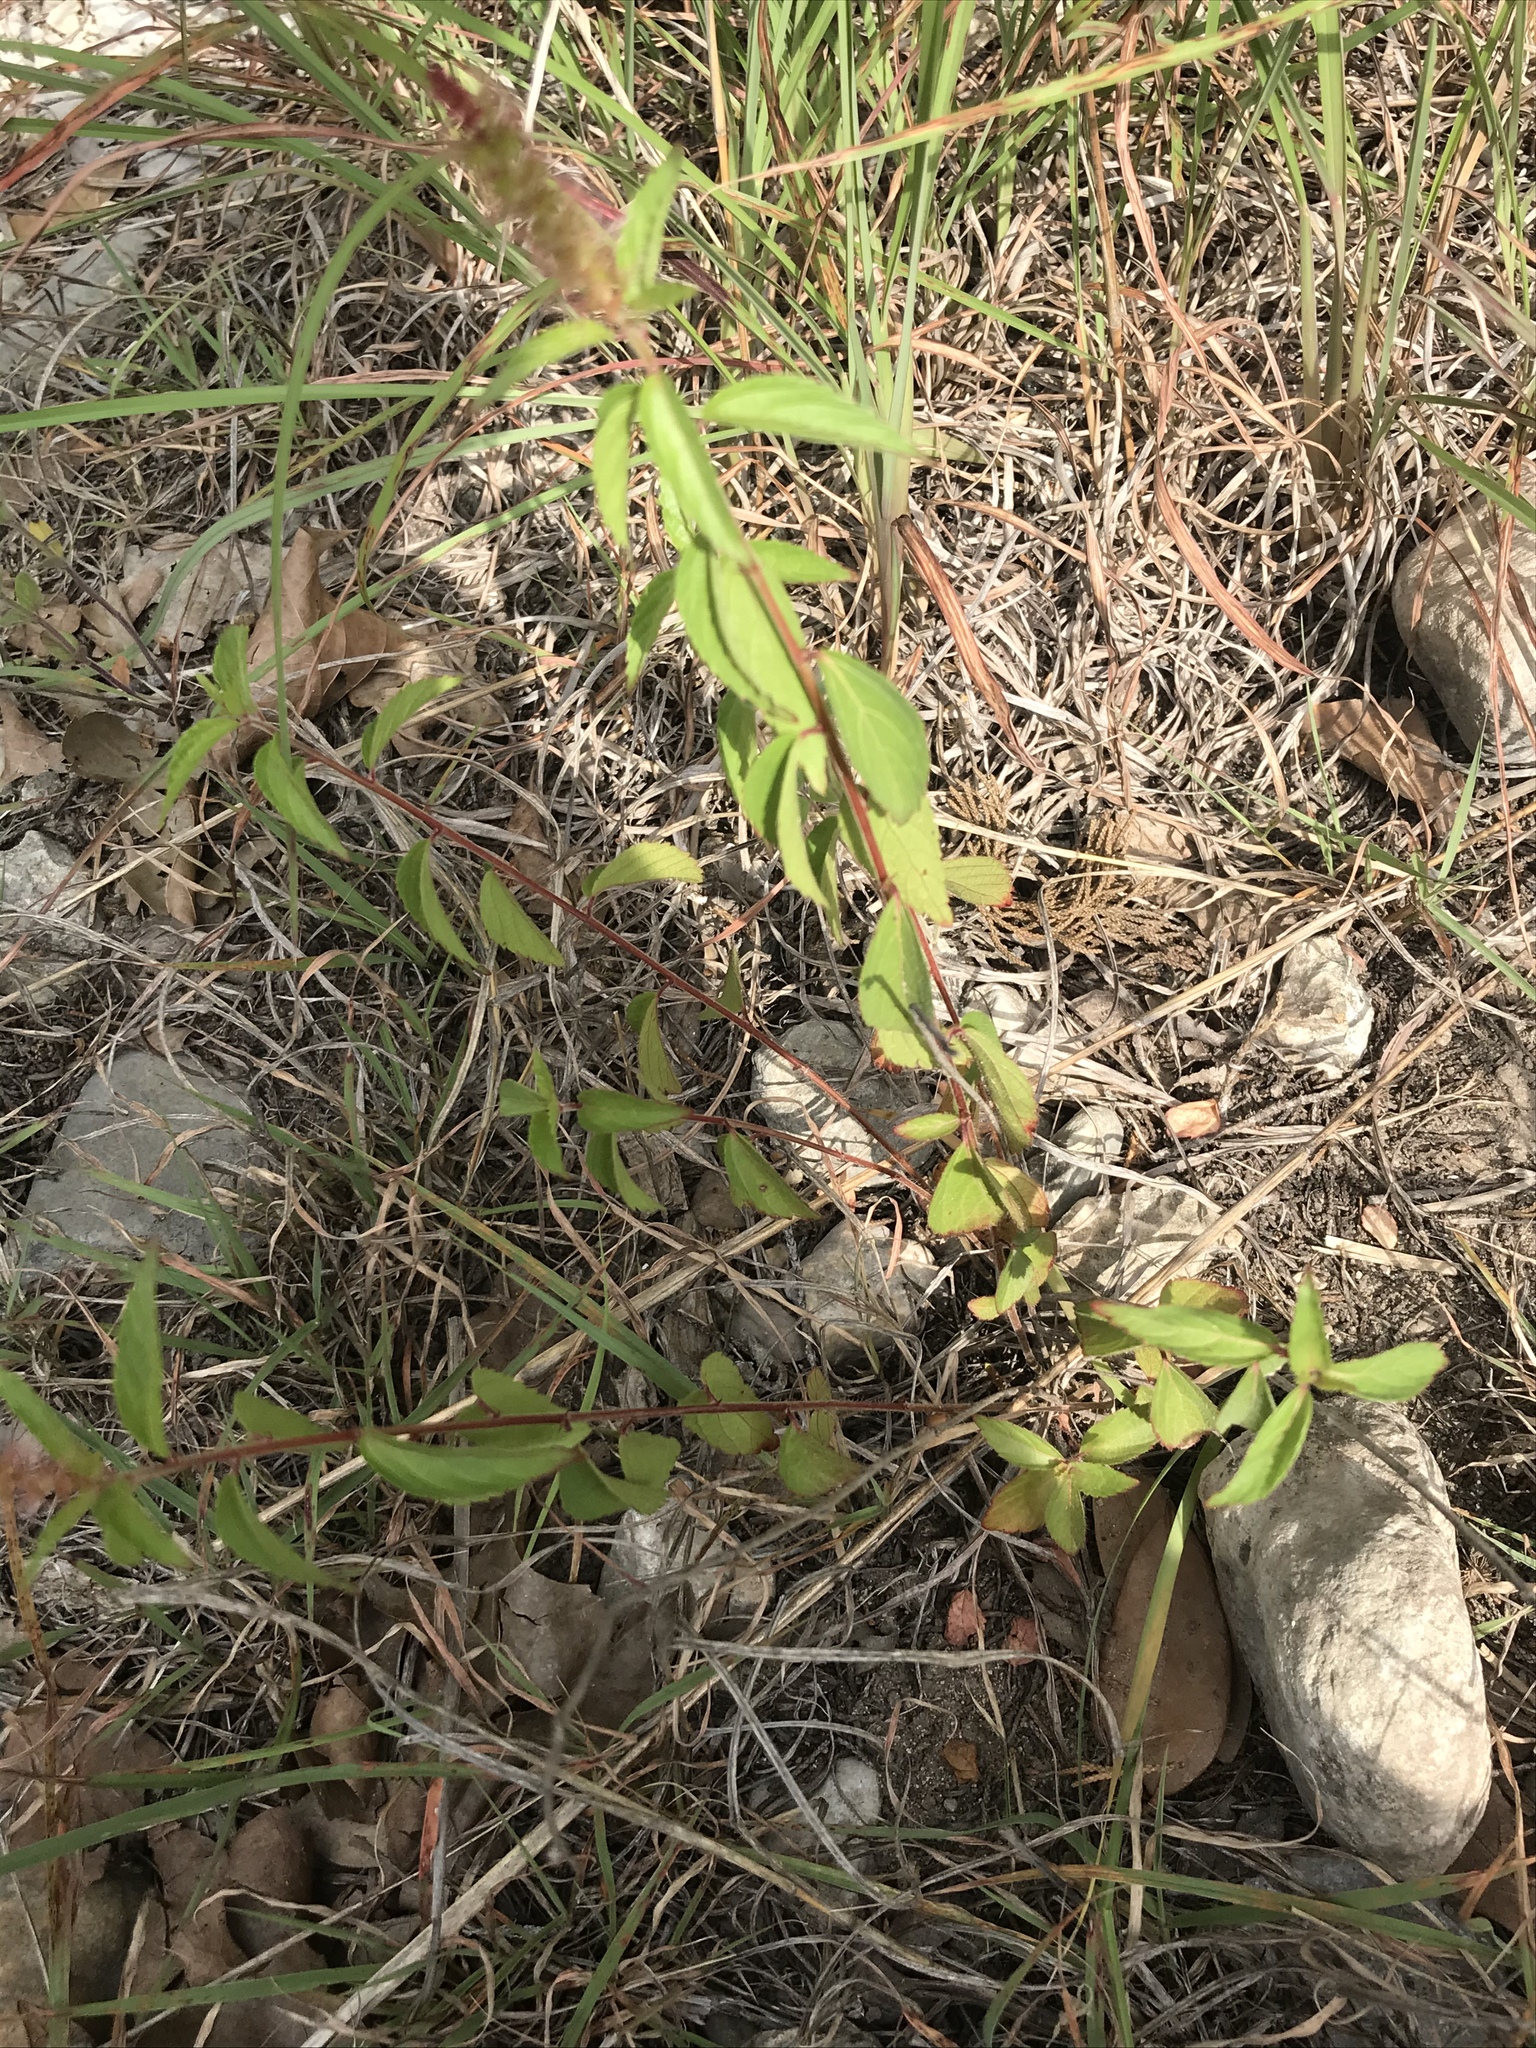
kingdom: Plantae
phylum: Tracheophyta
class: Magnoliopsida
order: Malpighiales
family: Euphorbiaceae
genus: Acalypha
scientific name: Acalypha phleoides
